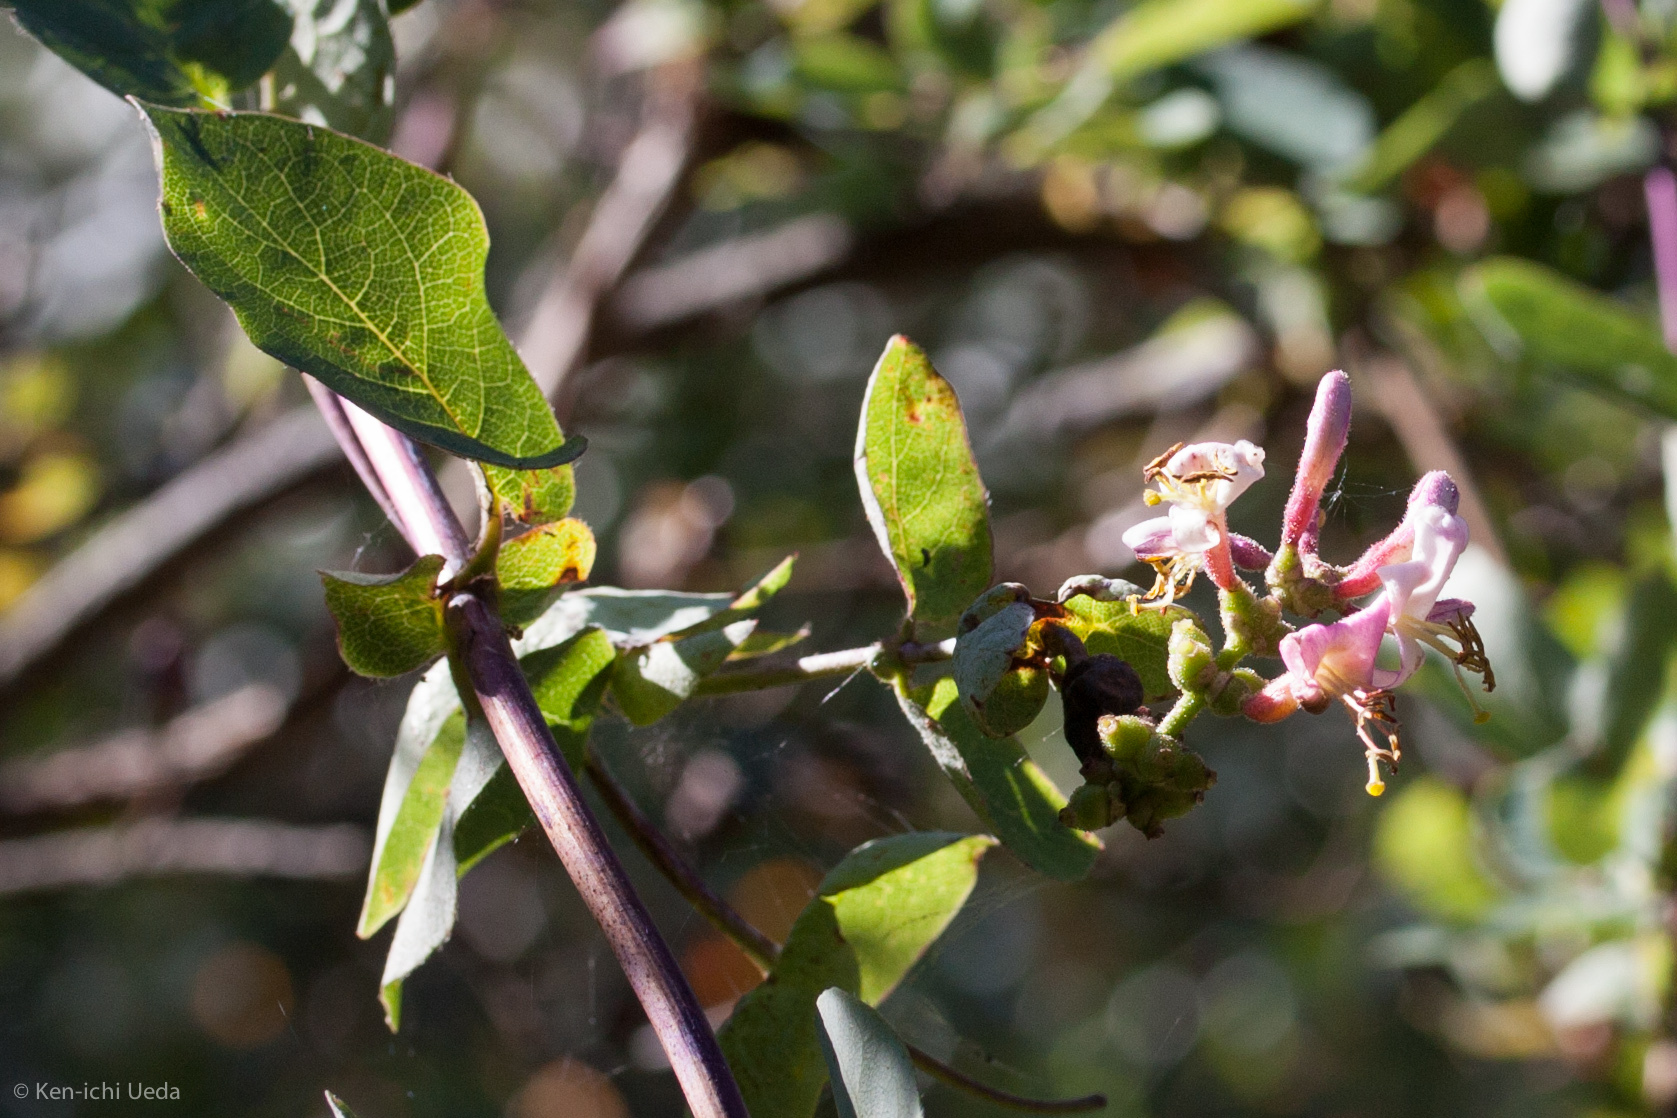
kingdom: Plantae
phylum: Tracheophyta
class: Magnoliopsida
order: Dipsacales
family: Caprifoliaceae
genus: Lonicera
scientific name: Lonicera hispidula
